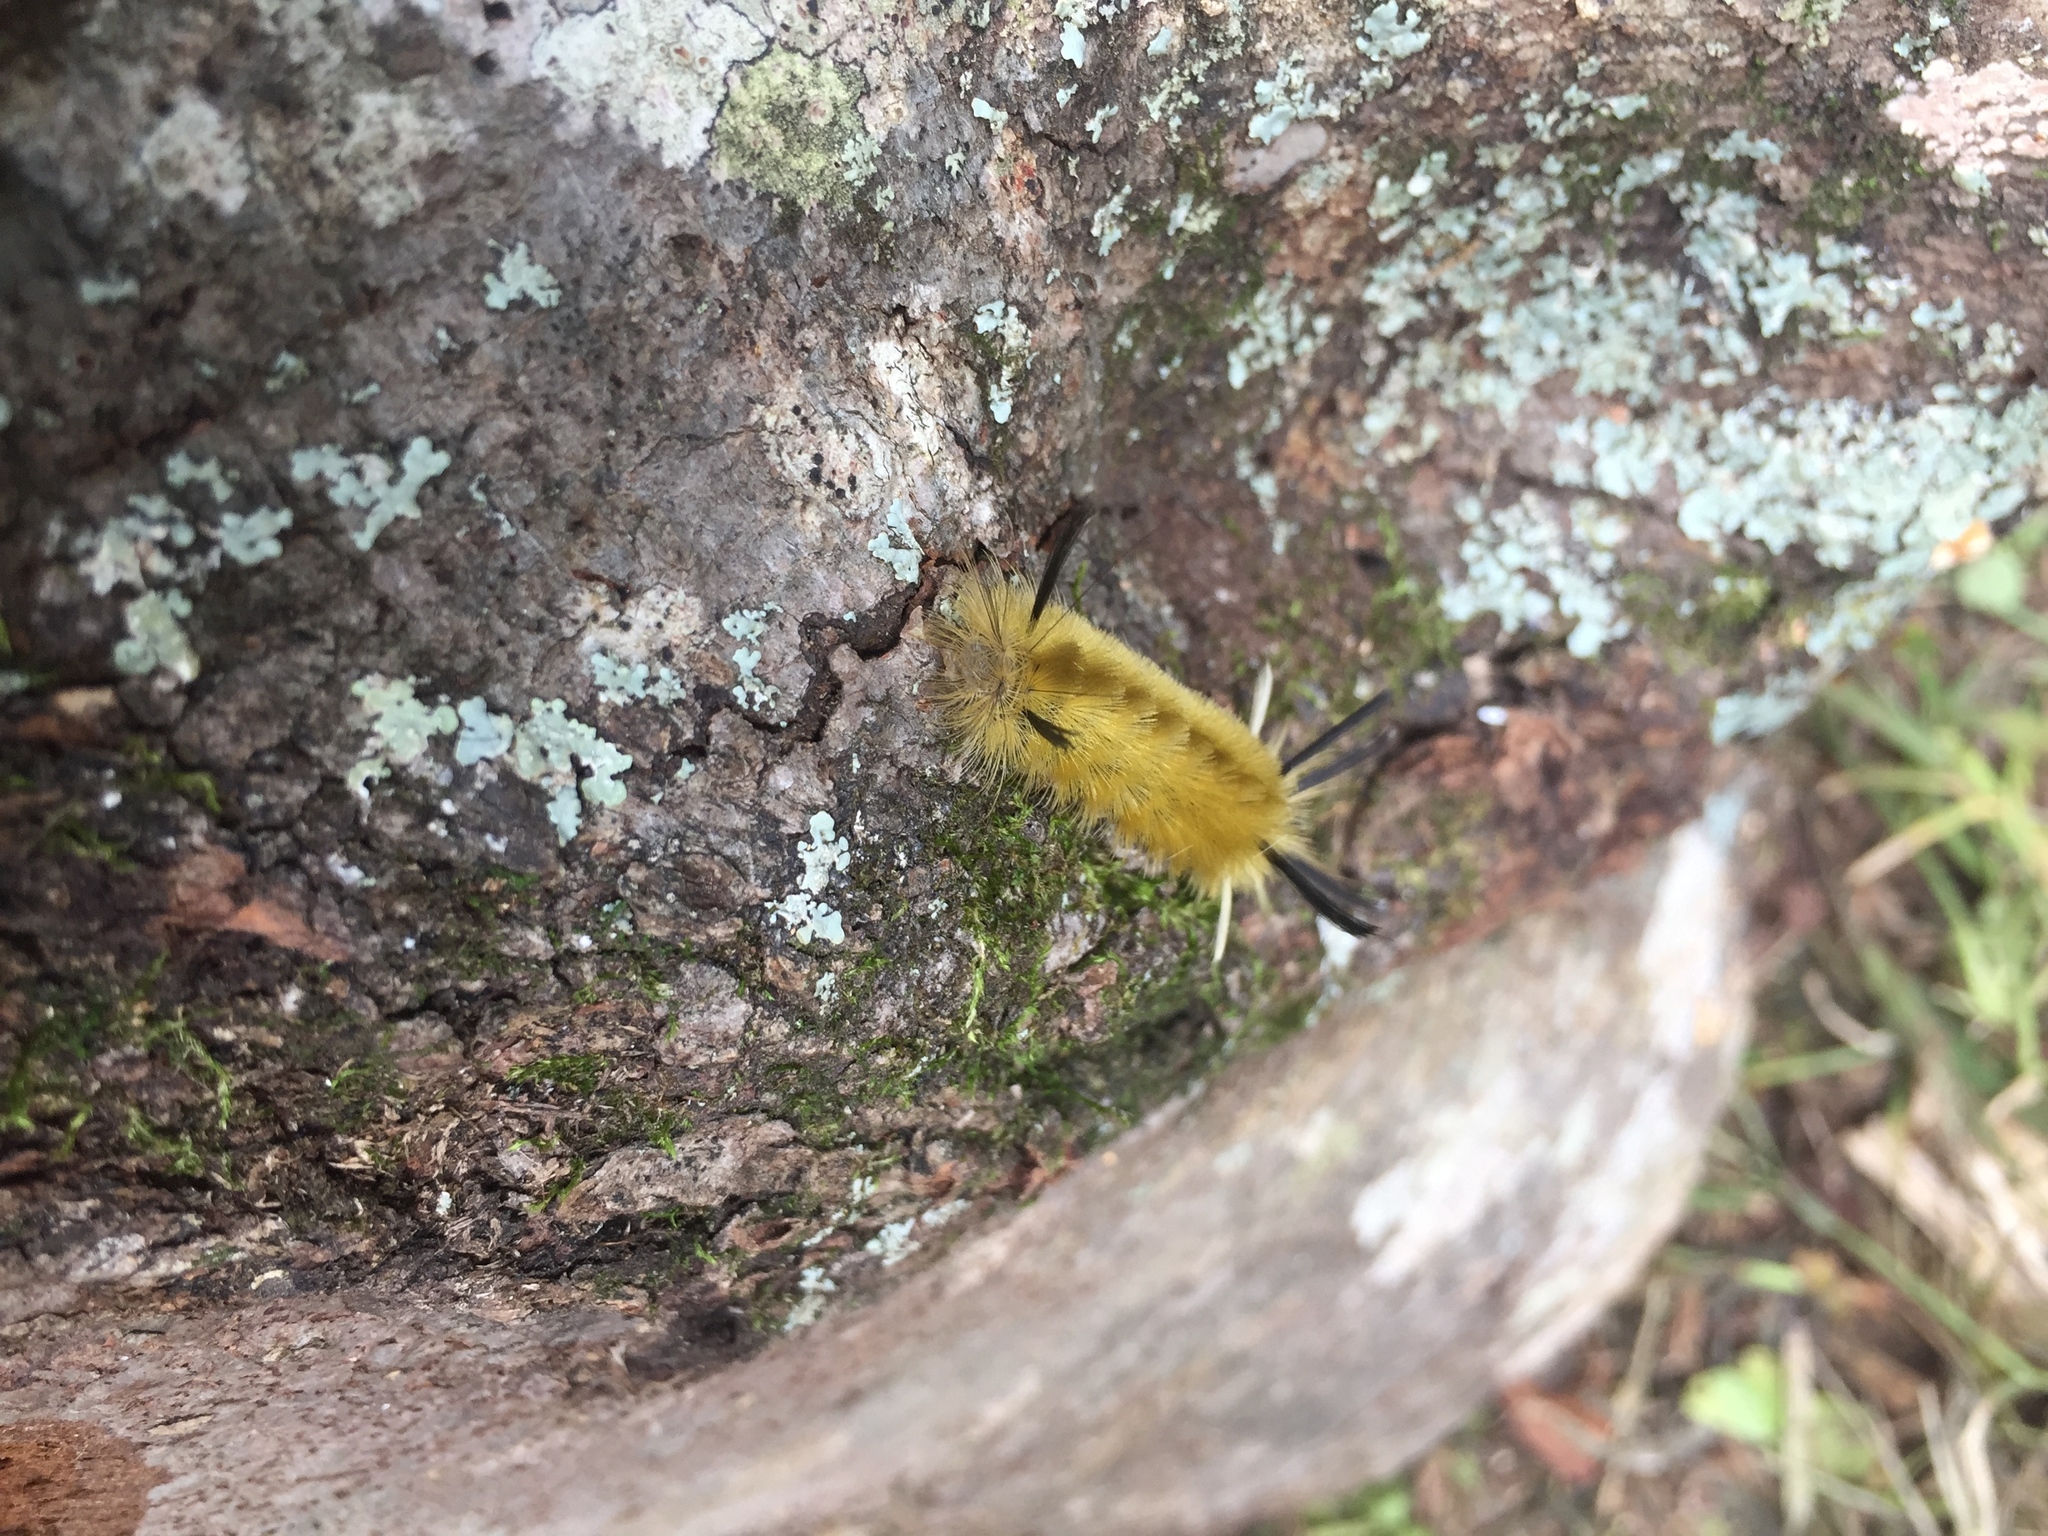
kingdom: Animalia
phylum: Arthropoda
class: Insecta
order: Lepidoptera
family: Erebidae
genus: Halysidota
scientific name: Halysidota tessellaris
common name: Banded tussock moth
